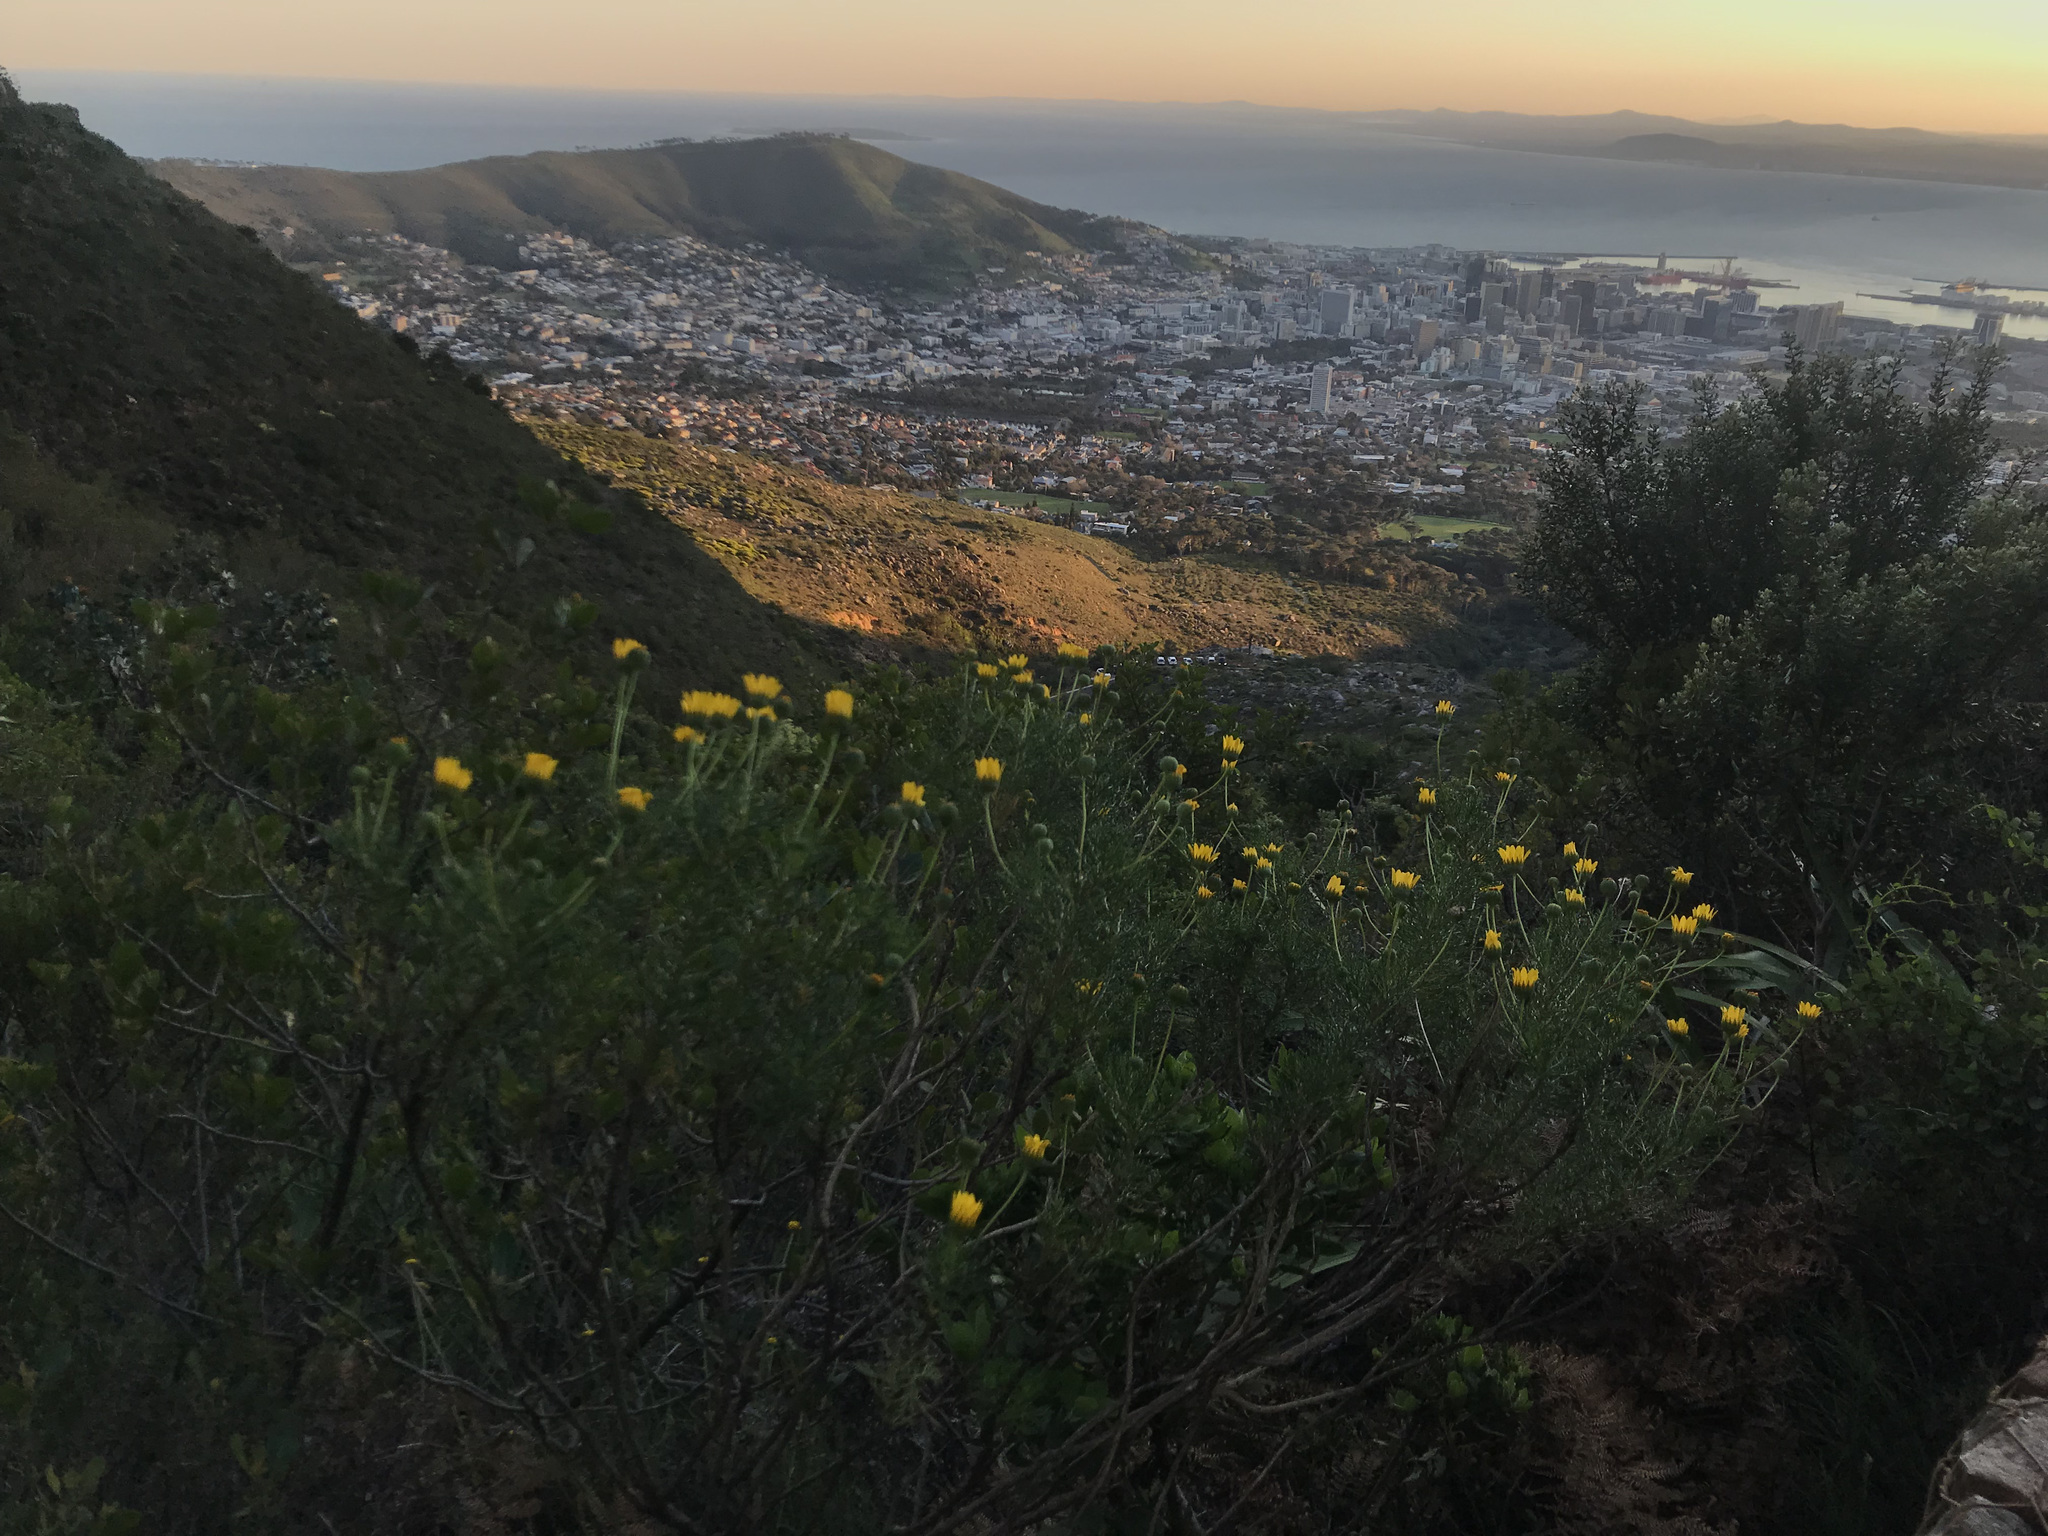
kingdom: Plantae
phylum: Tracheophyta
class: Magnoliopsida
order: Asterales
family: Asteraceae
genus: Euryops
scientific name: Euryops abrotanifolius
